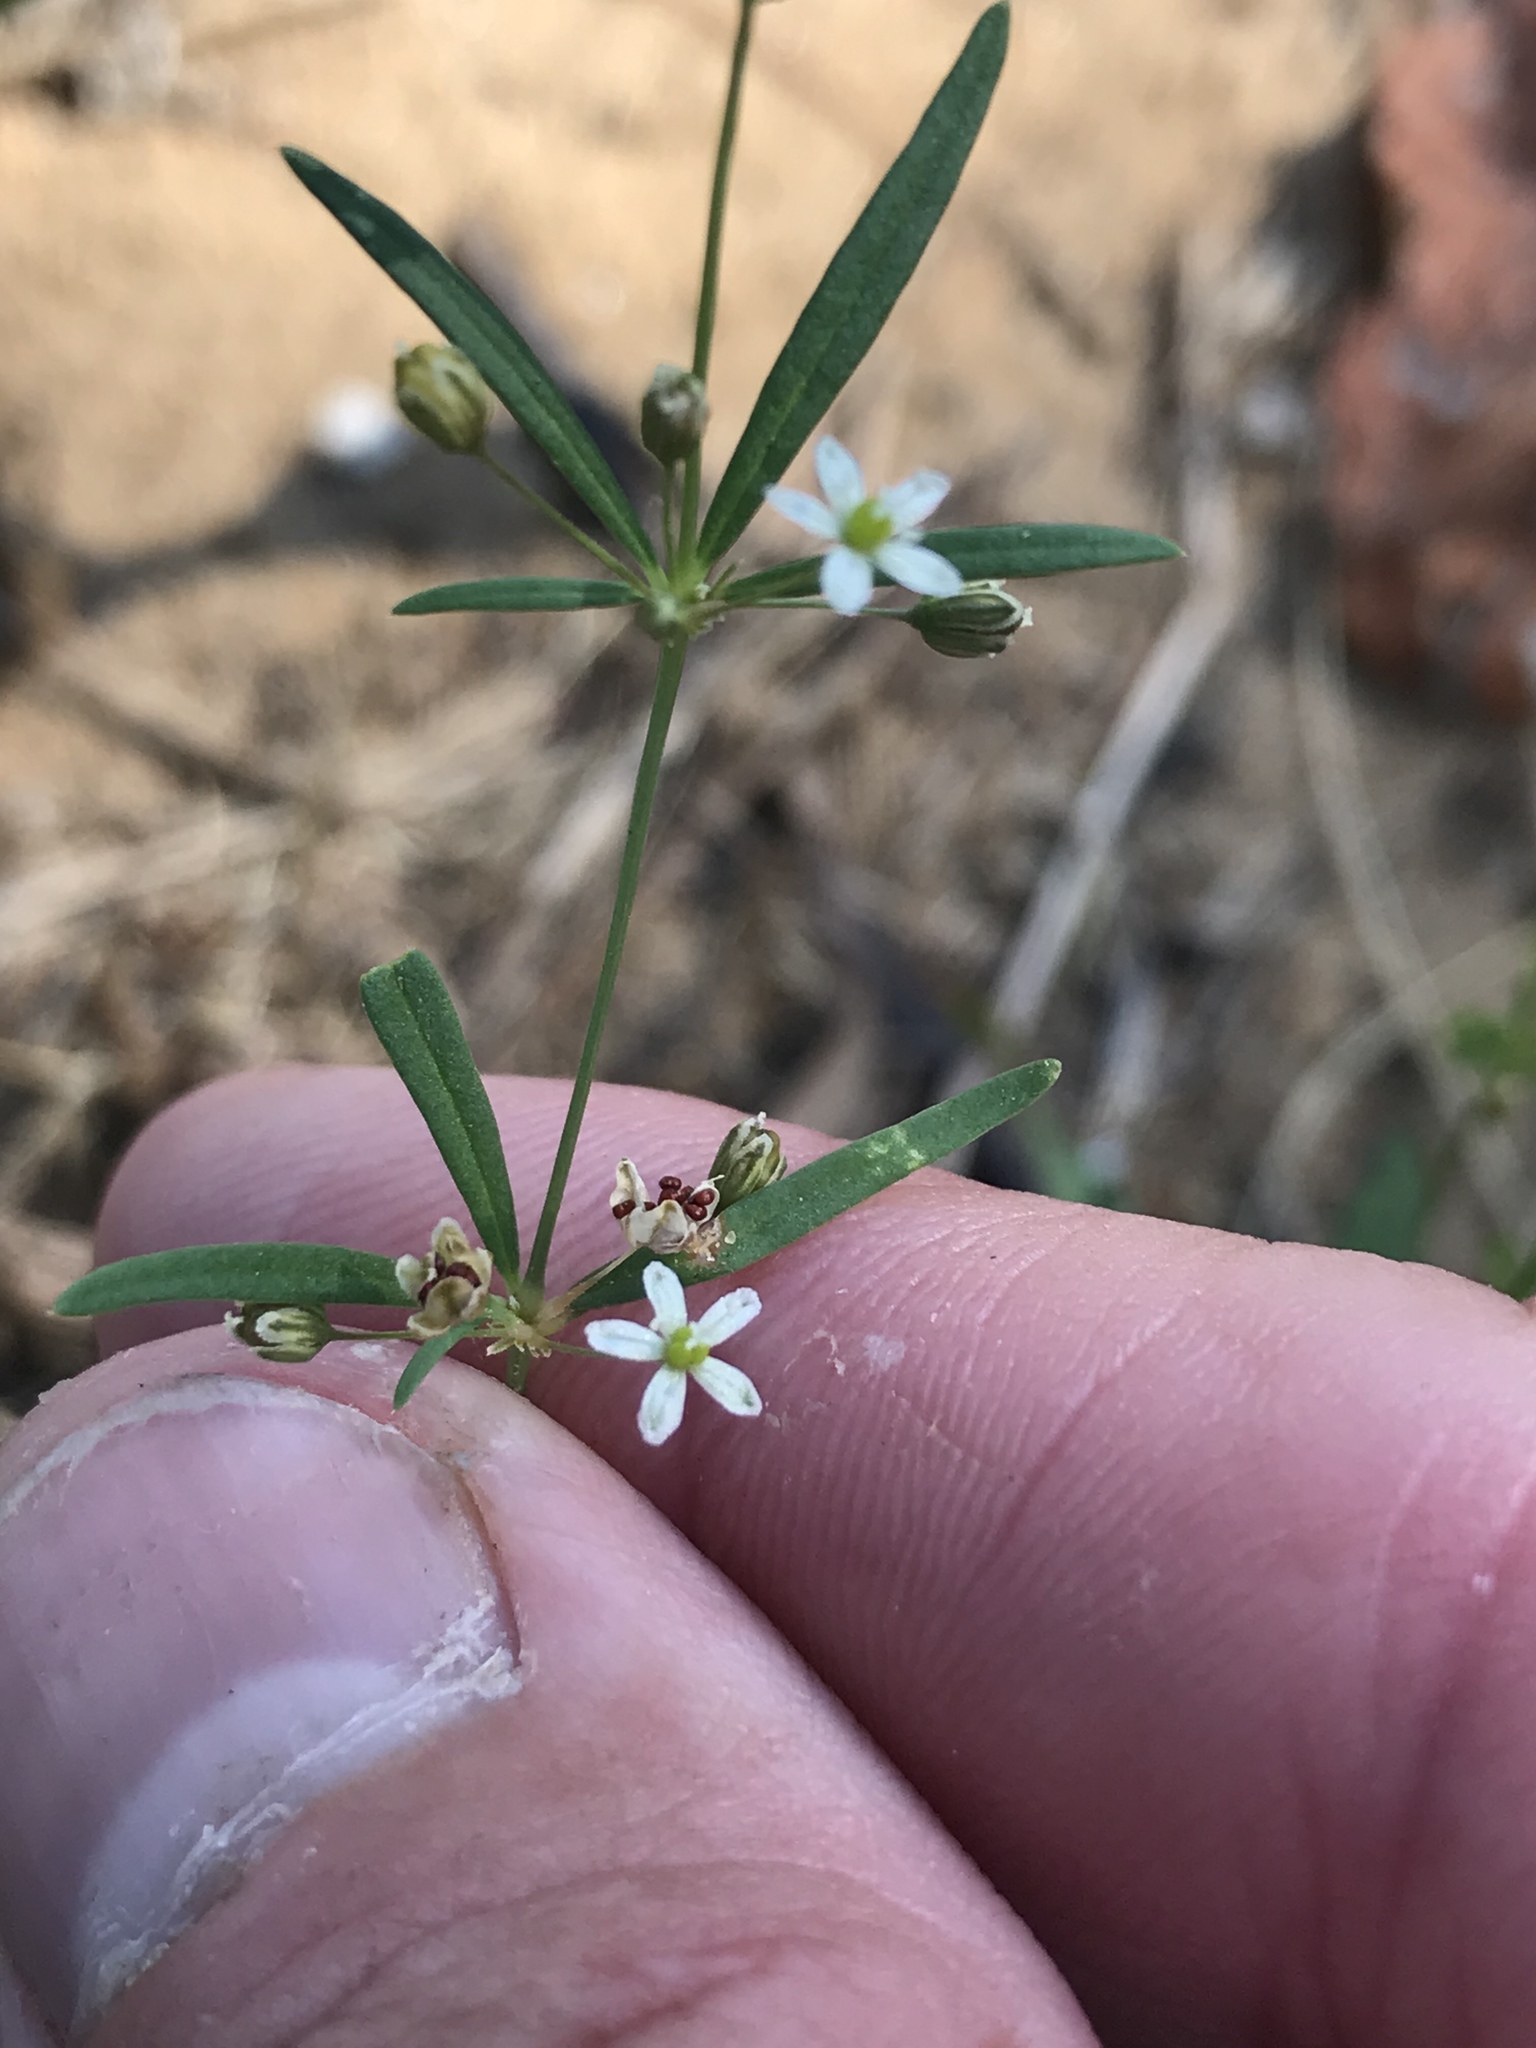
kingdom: Plantae
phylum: Tracheophyta
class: Magnoliopsida
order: Caryophyllales
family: Molluginaceae
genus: Mollugo
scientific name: Mollugo verticillata
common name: Green carpetweed
